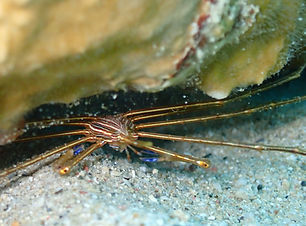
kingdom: Animalia
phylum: Arthropoda
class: Malacostraca
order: Decapoda
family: Inachoididae
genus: Stenorhynchus
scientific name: Stenorhynchus seticornis
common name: Arrow crab
